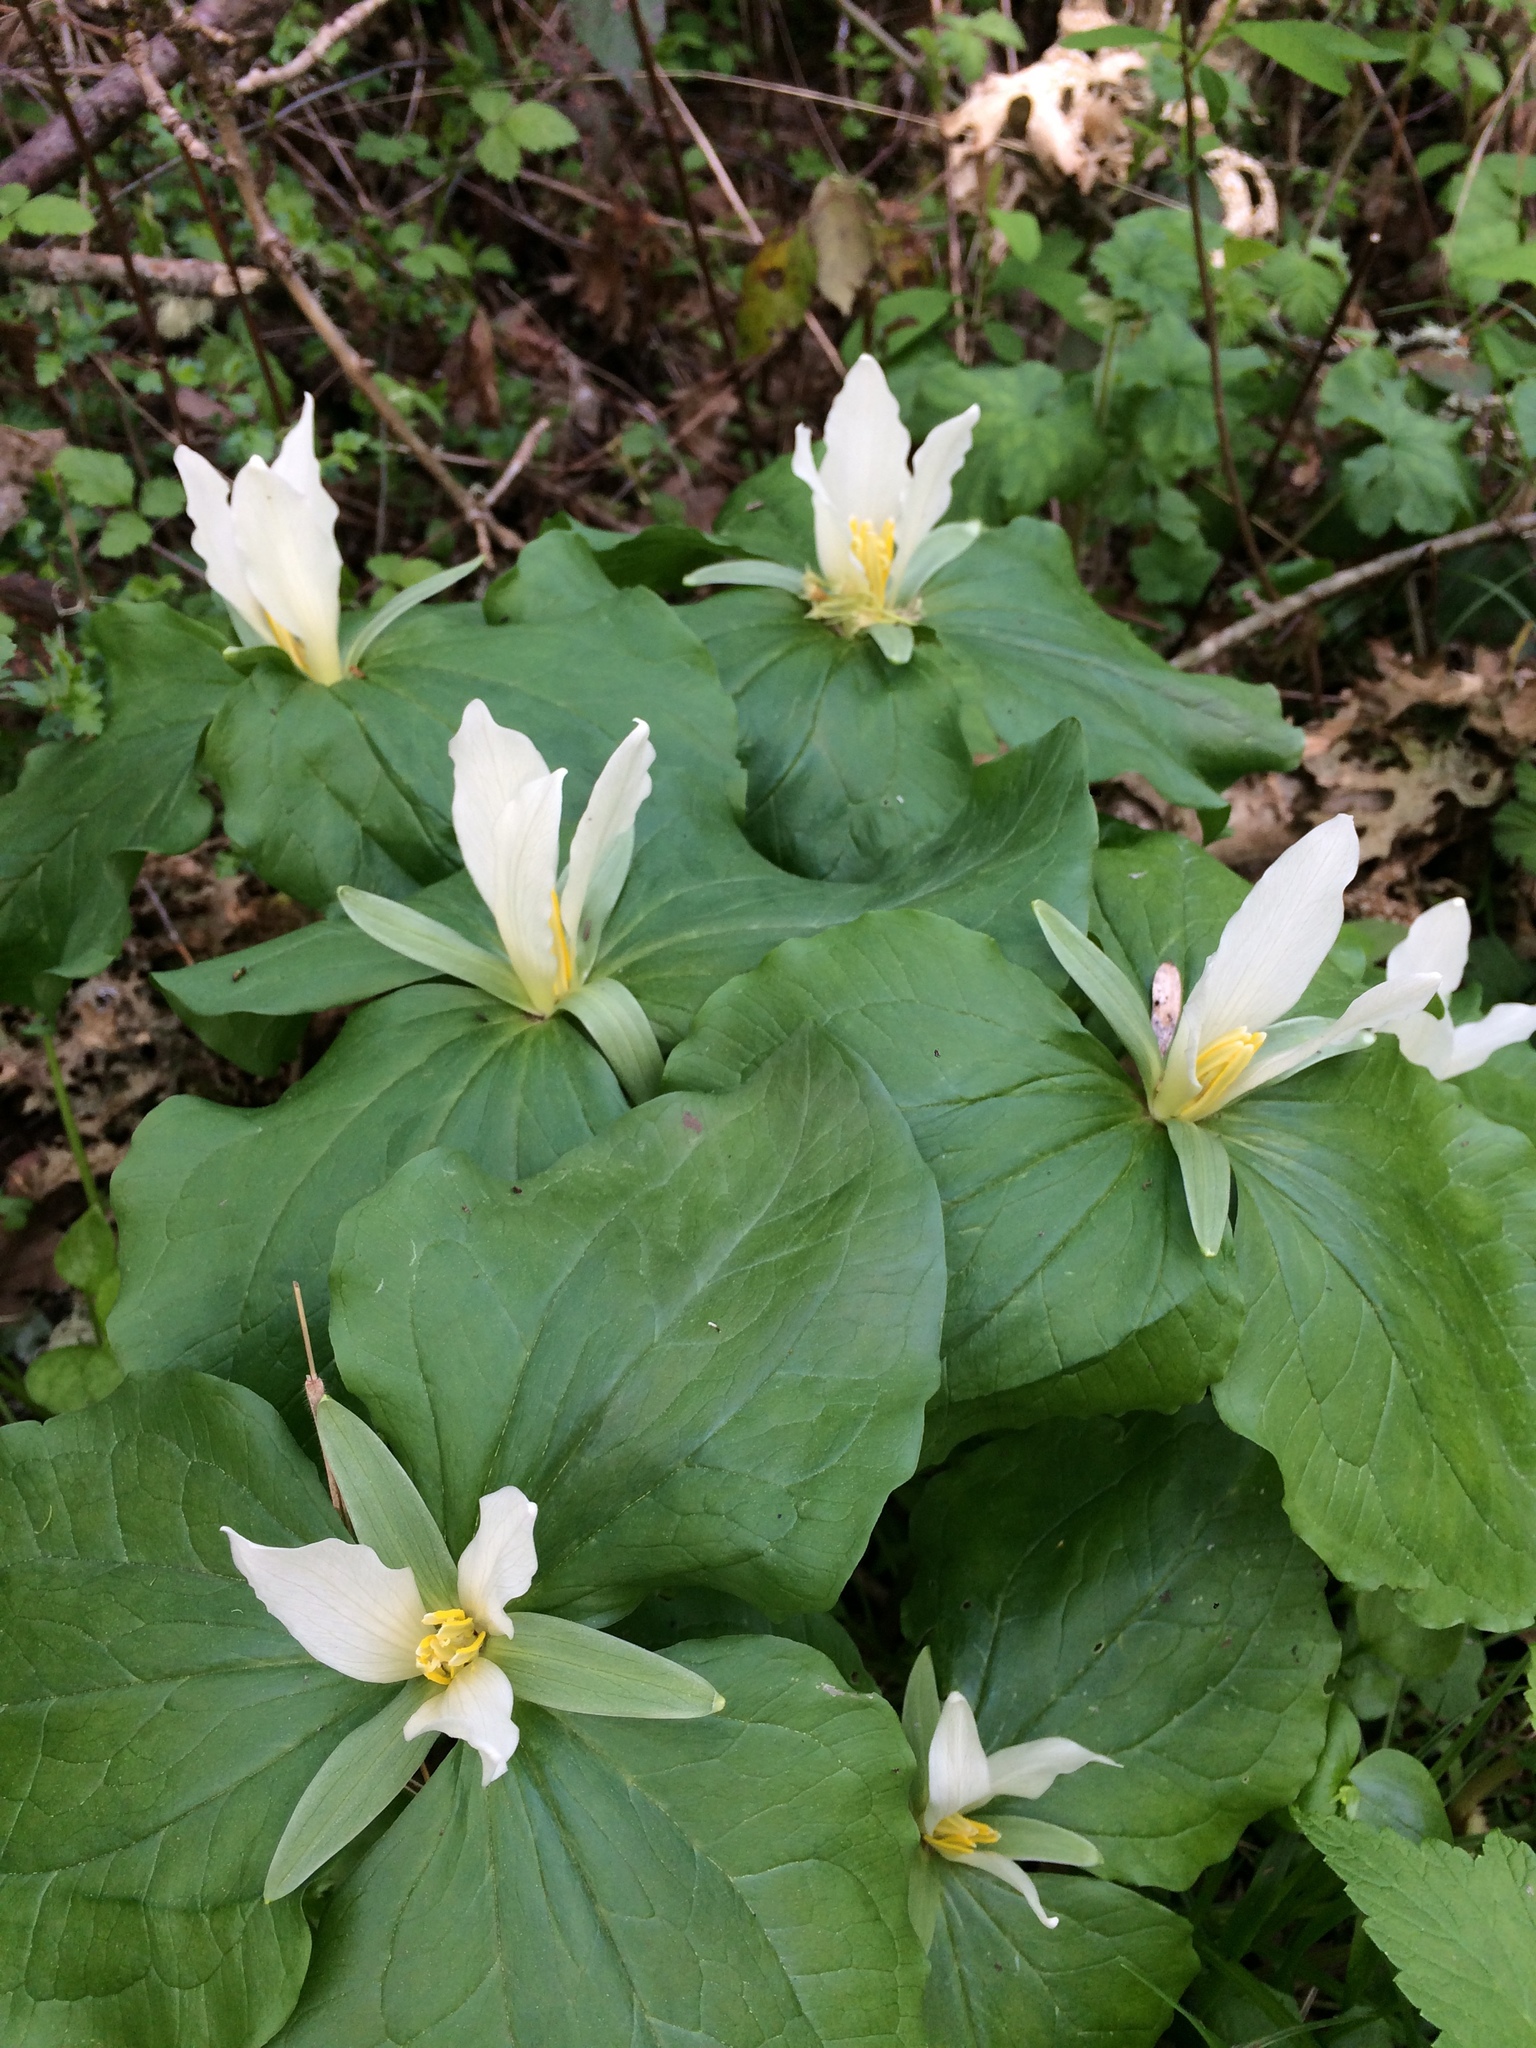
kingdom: Plantae
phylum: Tracheophyta
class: Liliopsida
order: Liliales
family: Melanthiaceae
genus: Trillium
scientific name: Trillium albidum
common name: Freeman's trillium
